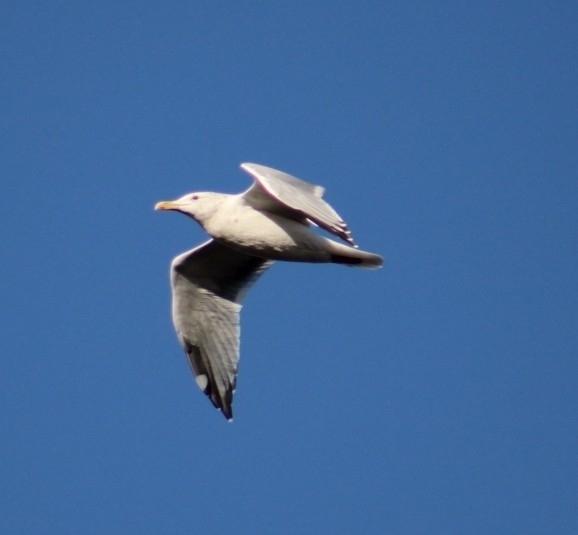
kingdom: Animalia
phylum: Chordata
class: Aves
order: Charadriiformes
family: Laridae
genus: Larus
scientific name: Larus occidentalis
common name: Western gull
